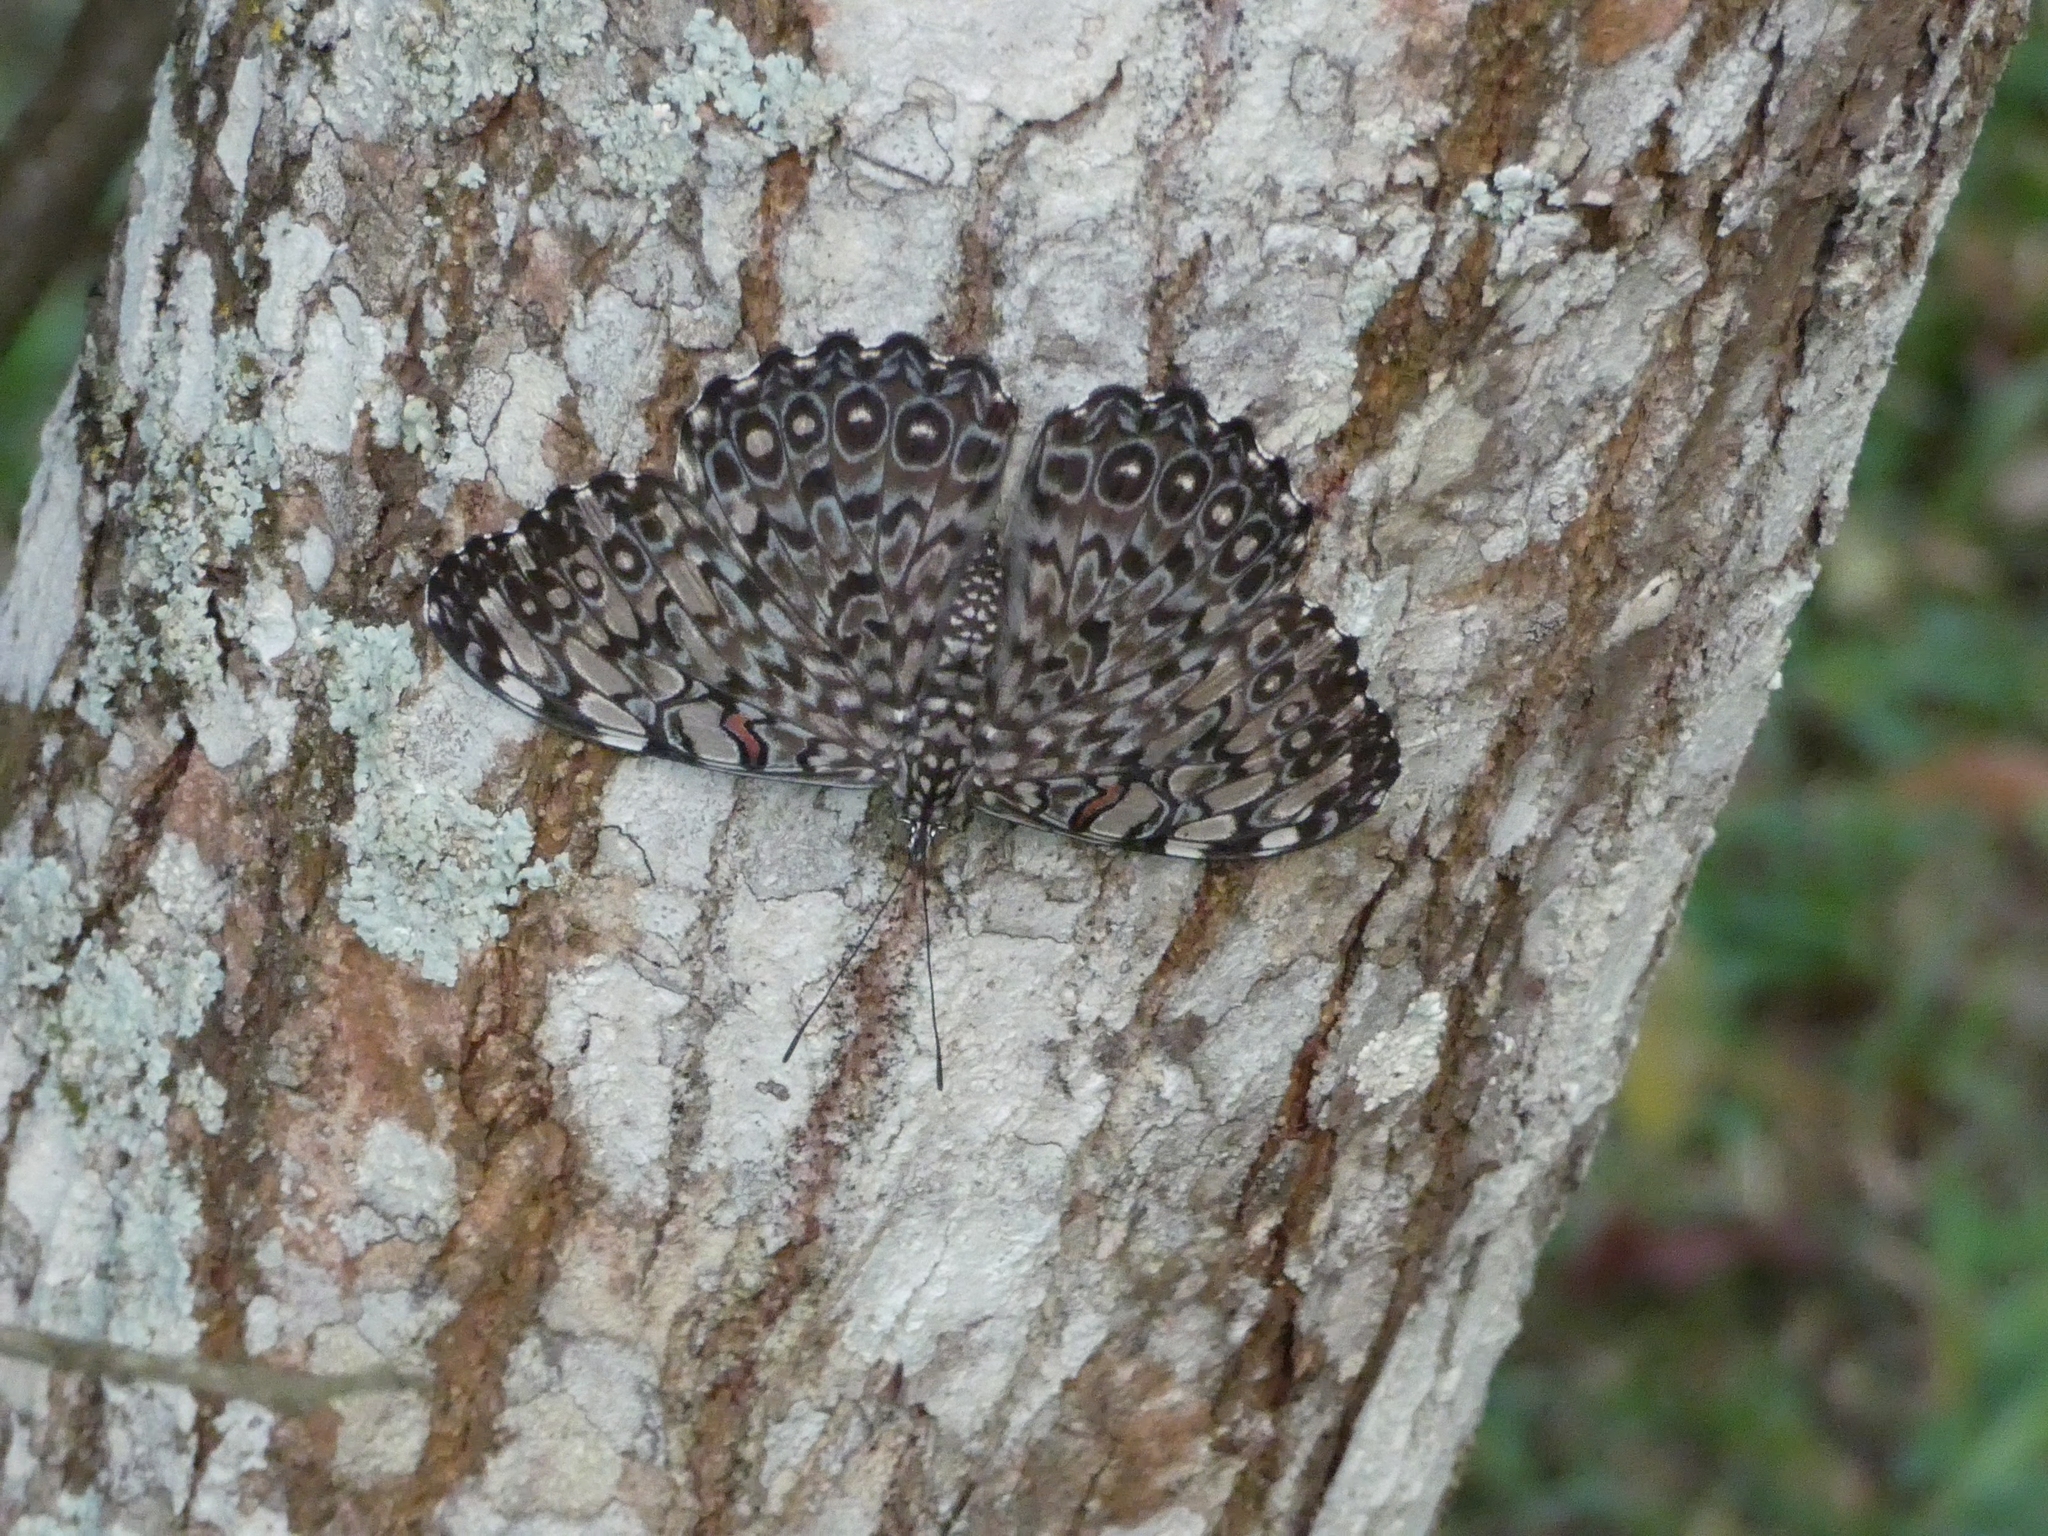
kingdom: Animalia
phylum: Arthropoda
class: Insecta
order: Lepidoptera
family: Nymphalidae
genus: Hamadryas
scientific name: Hamadryas feronia
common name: Variable cracker
